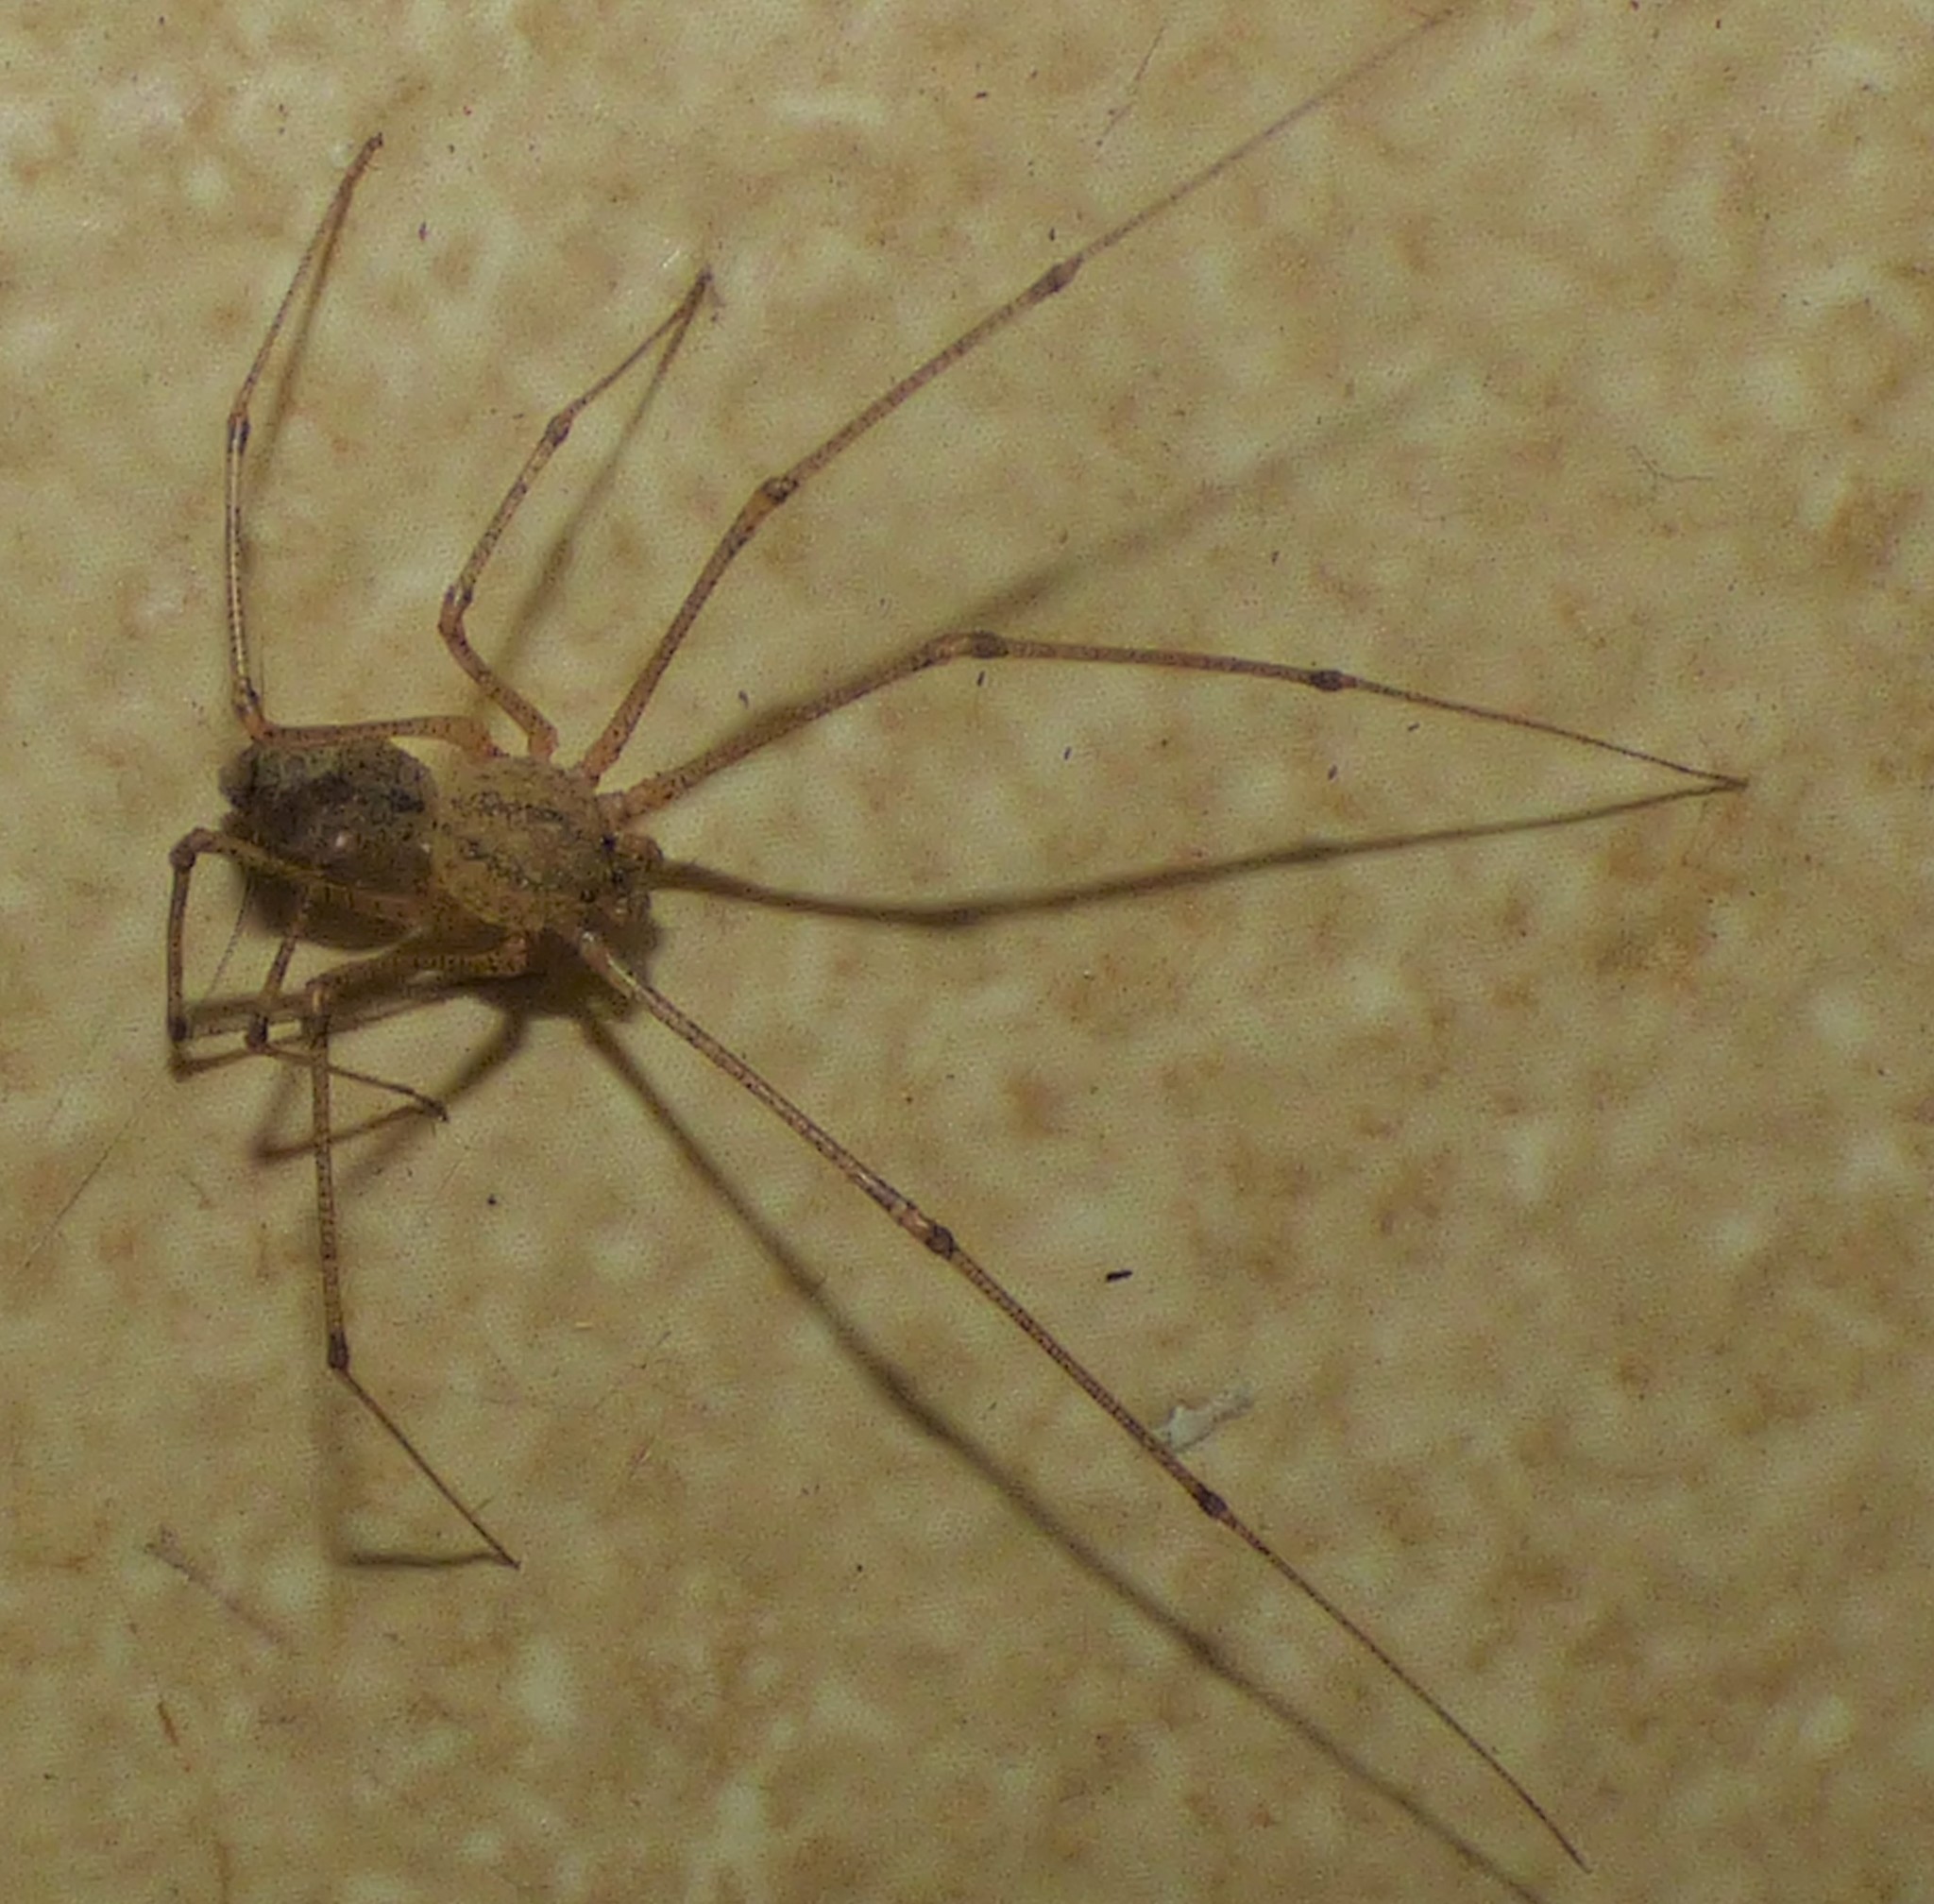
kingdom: Animalia
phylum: Arthropoda
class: Arachnida
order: Araneae
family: Scytodidae
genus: Scytodes
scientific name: Scytodes atlacoya
